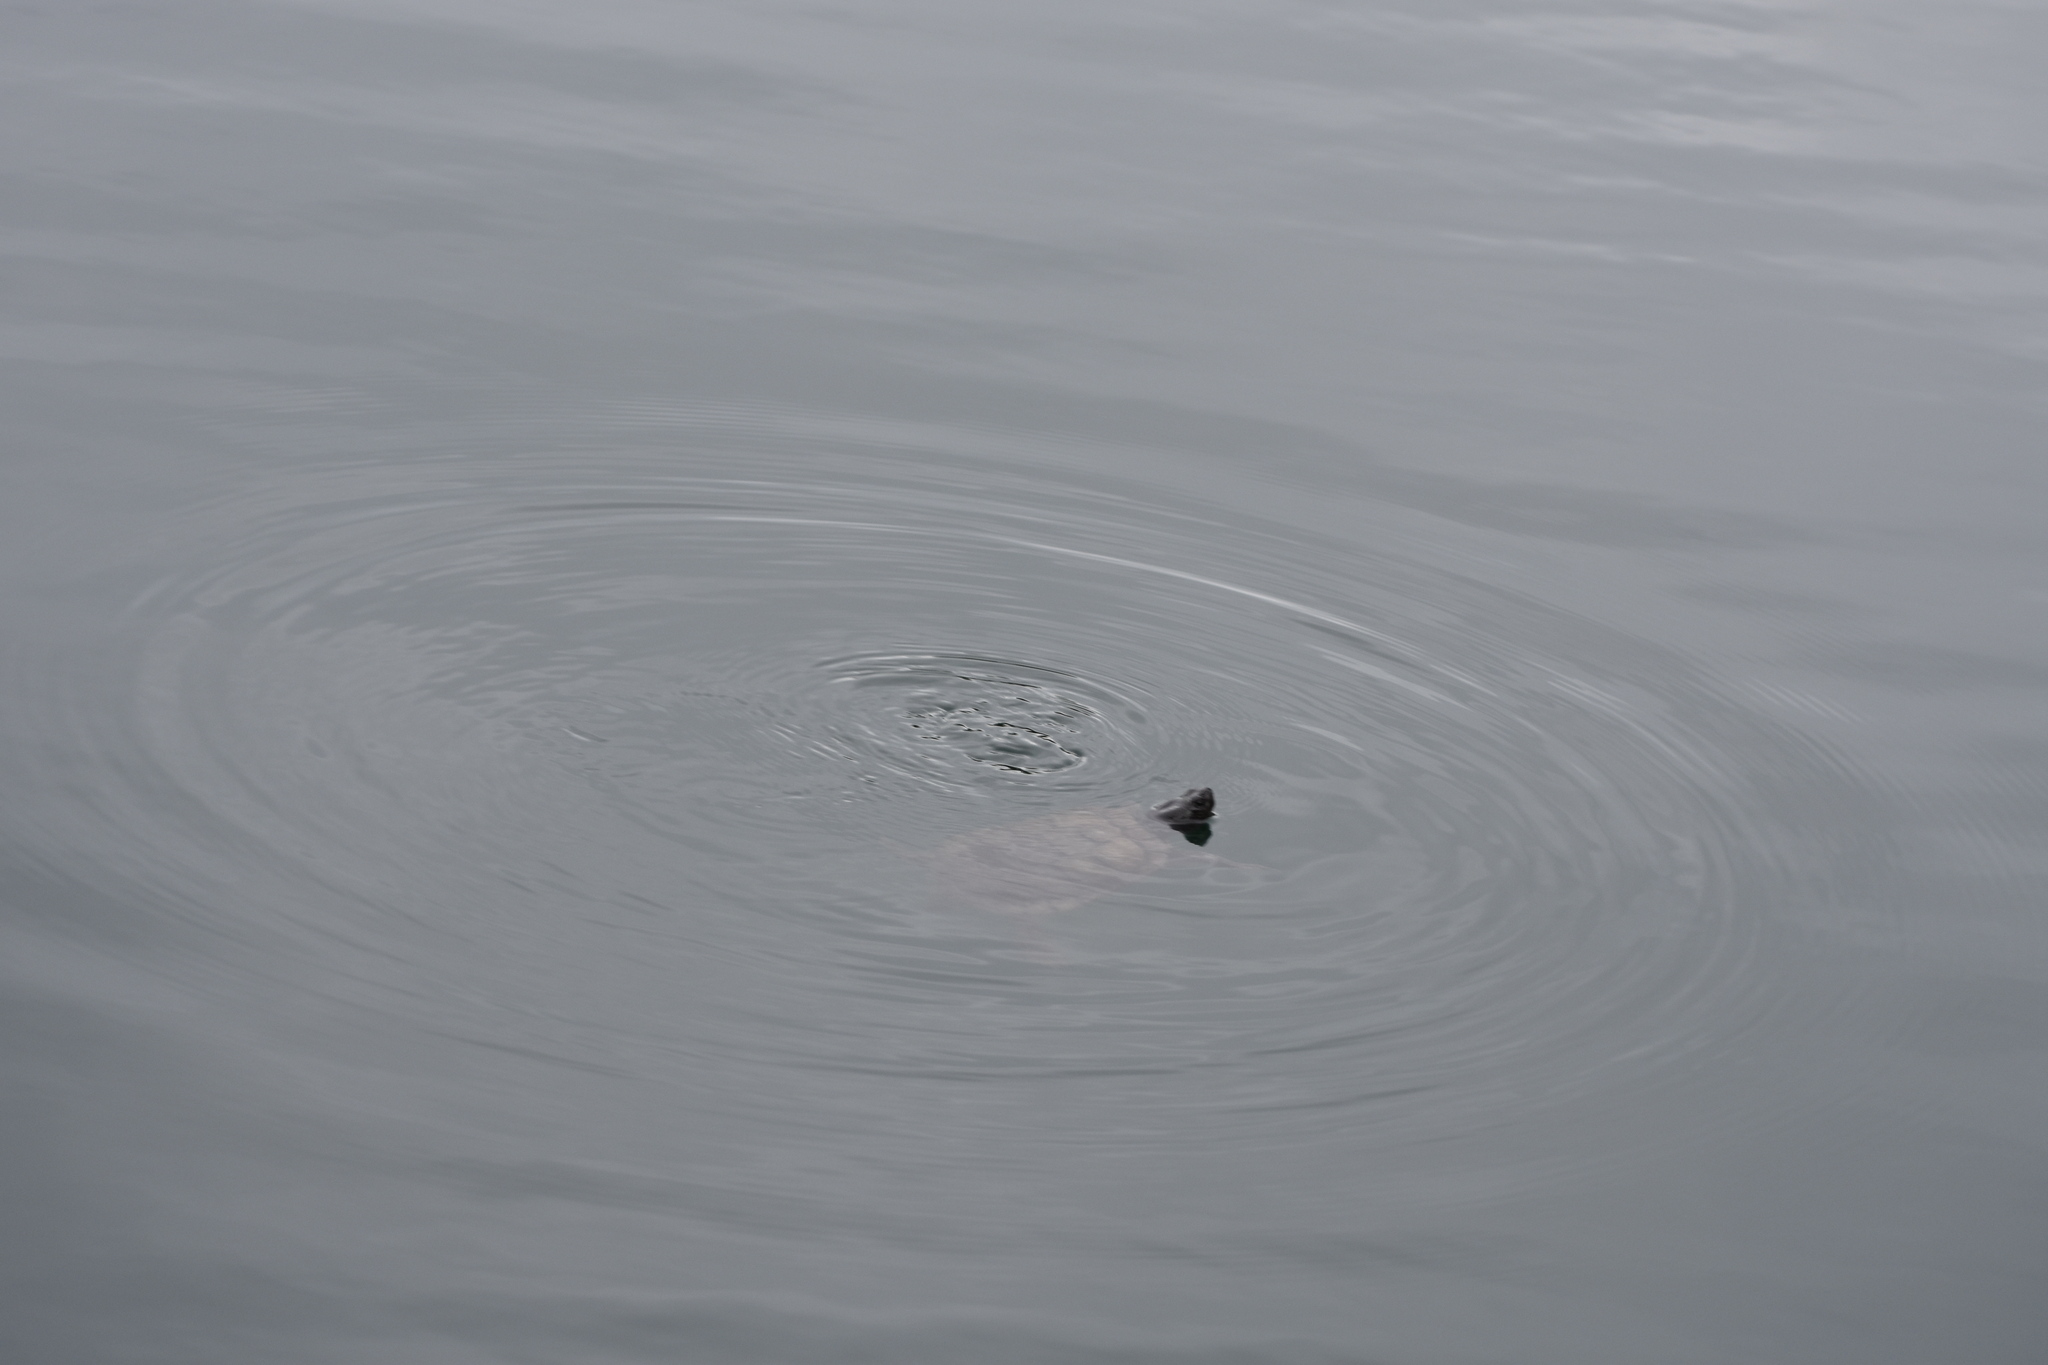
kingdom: Animalia
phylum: Chordata
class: Testudines
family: Emydidae
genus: Trachemys
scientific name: Trachemys scripta
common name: Slider
